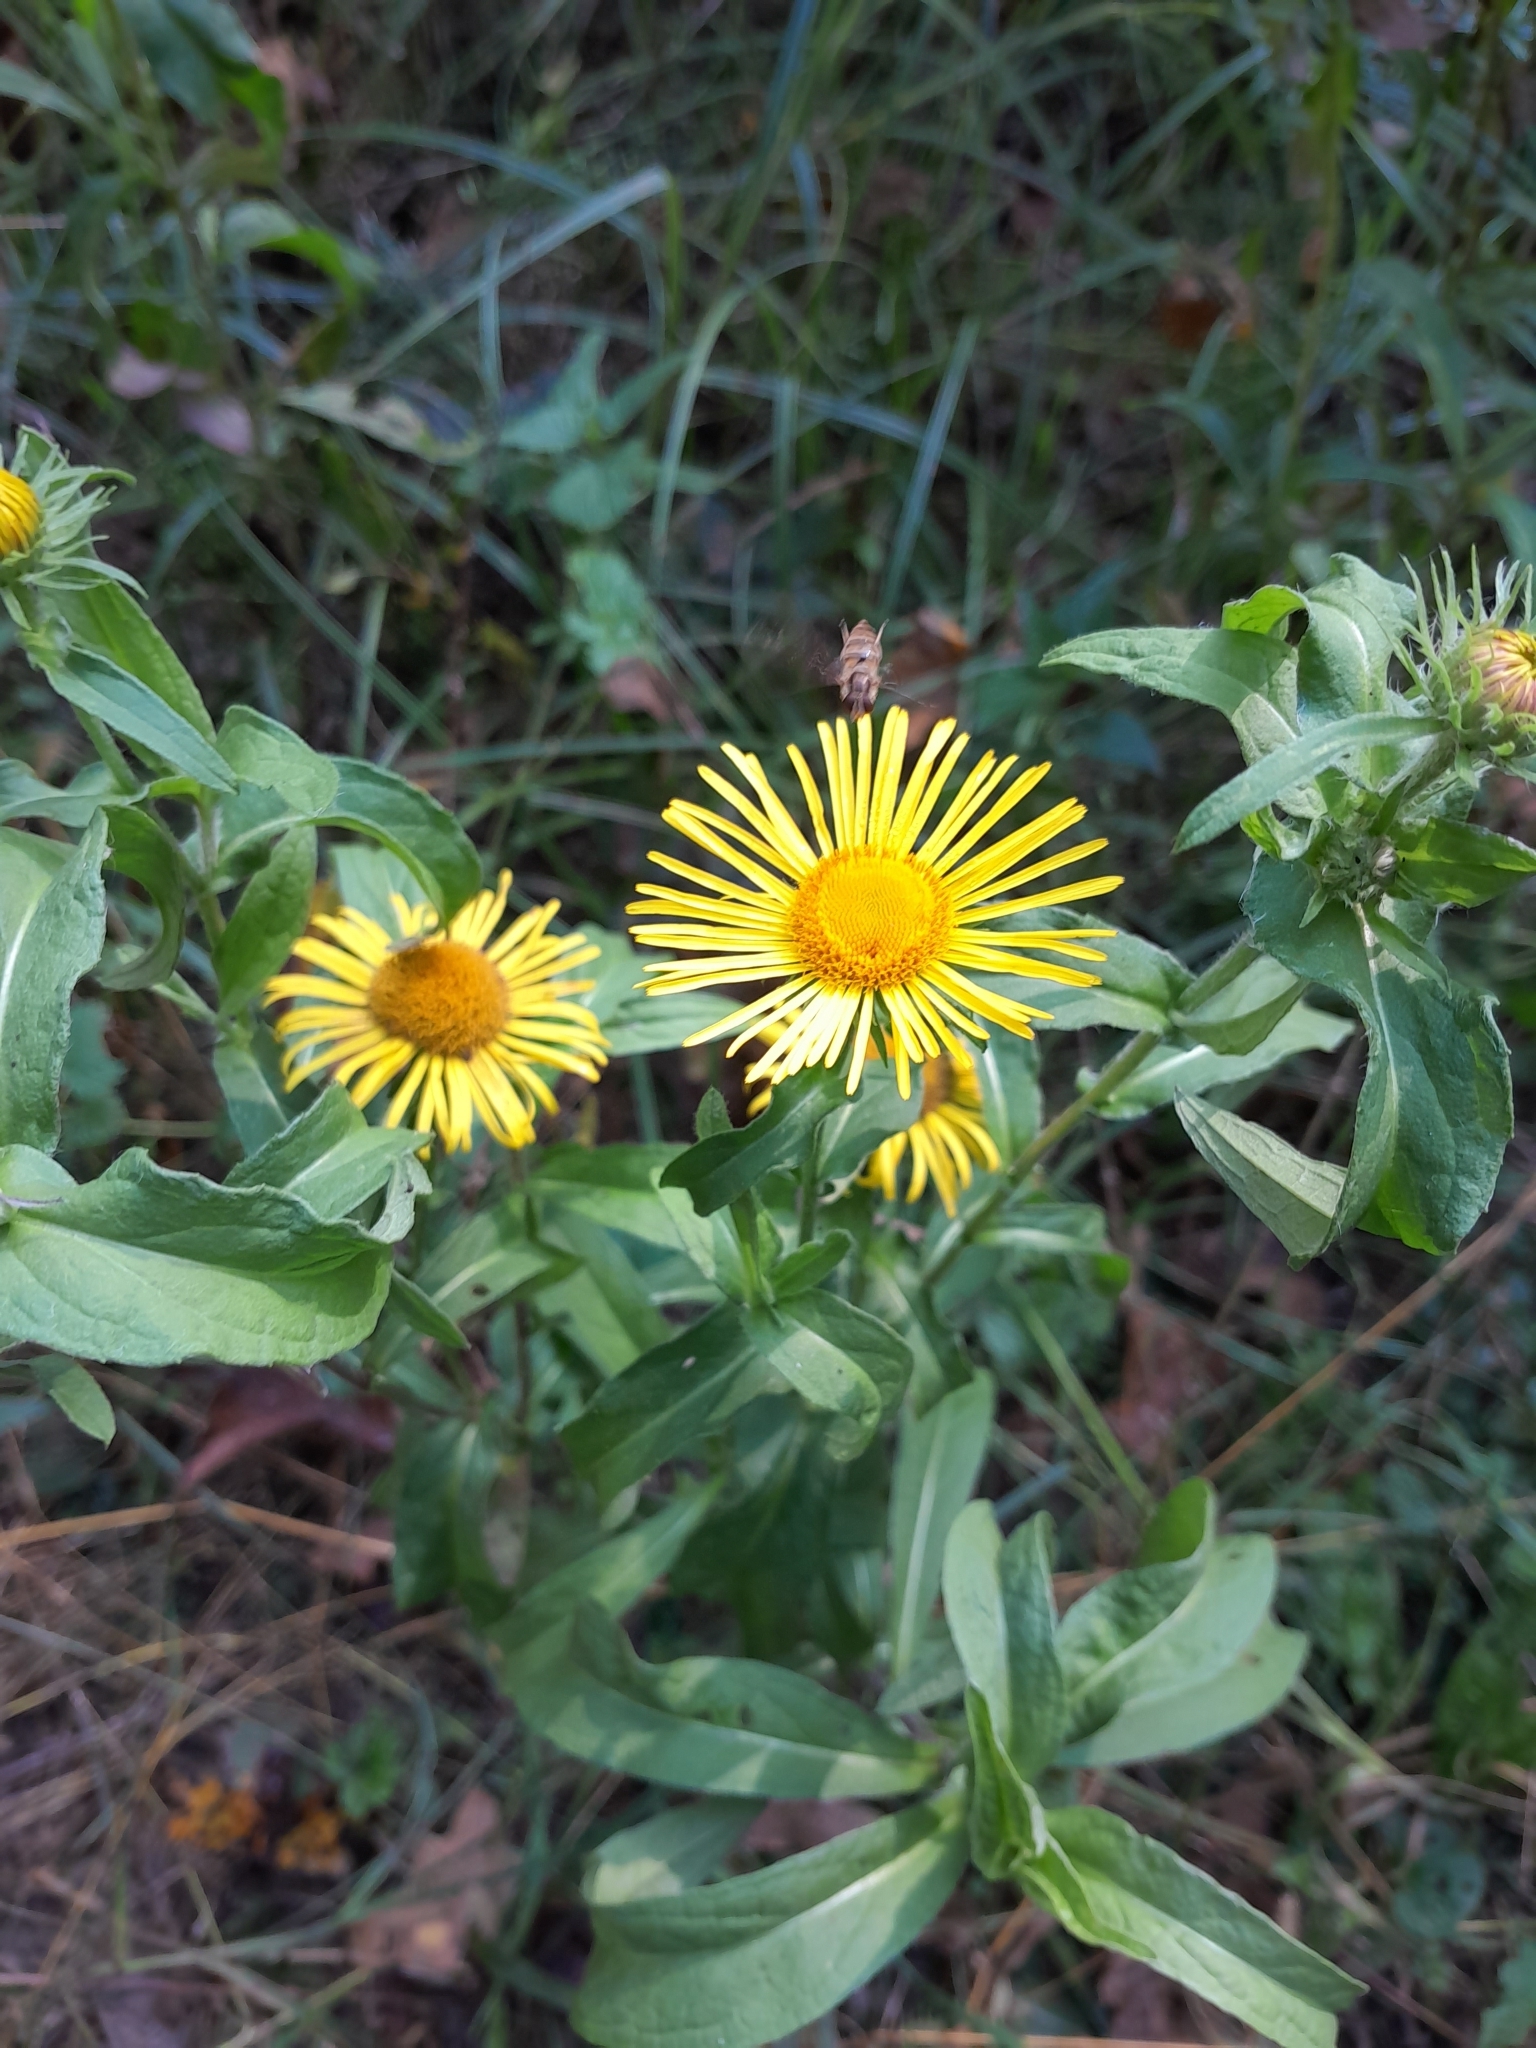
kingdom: Plantae
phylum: Tracheophyta
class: Magnoliopsida
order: Asterales
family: Asteraceae
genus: Pentanema
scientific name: Pentanema britannicum
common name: British elecampane
